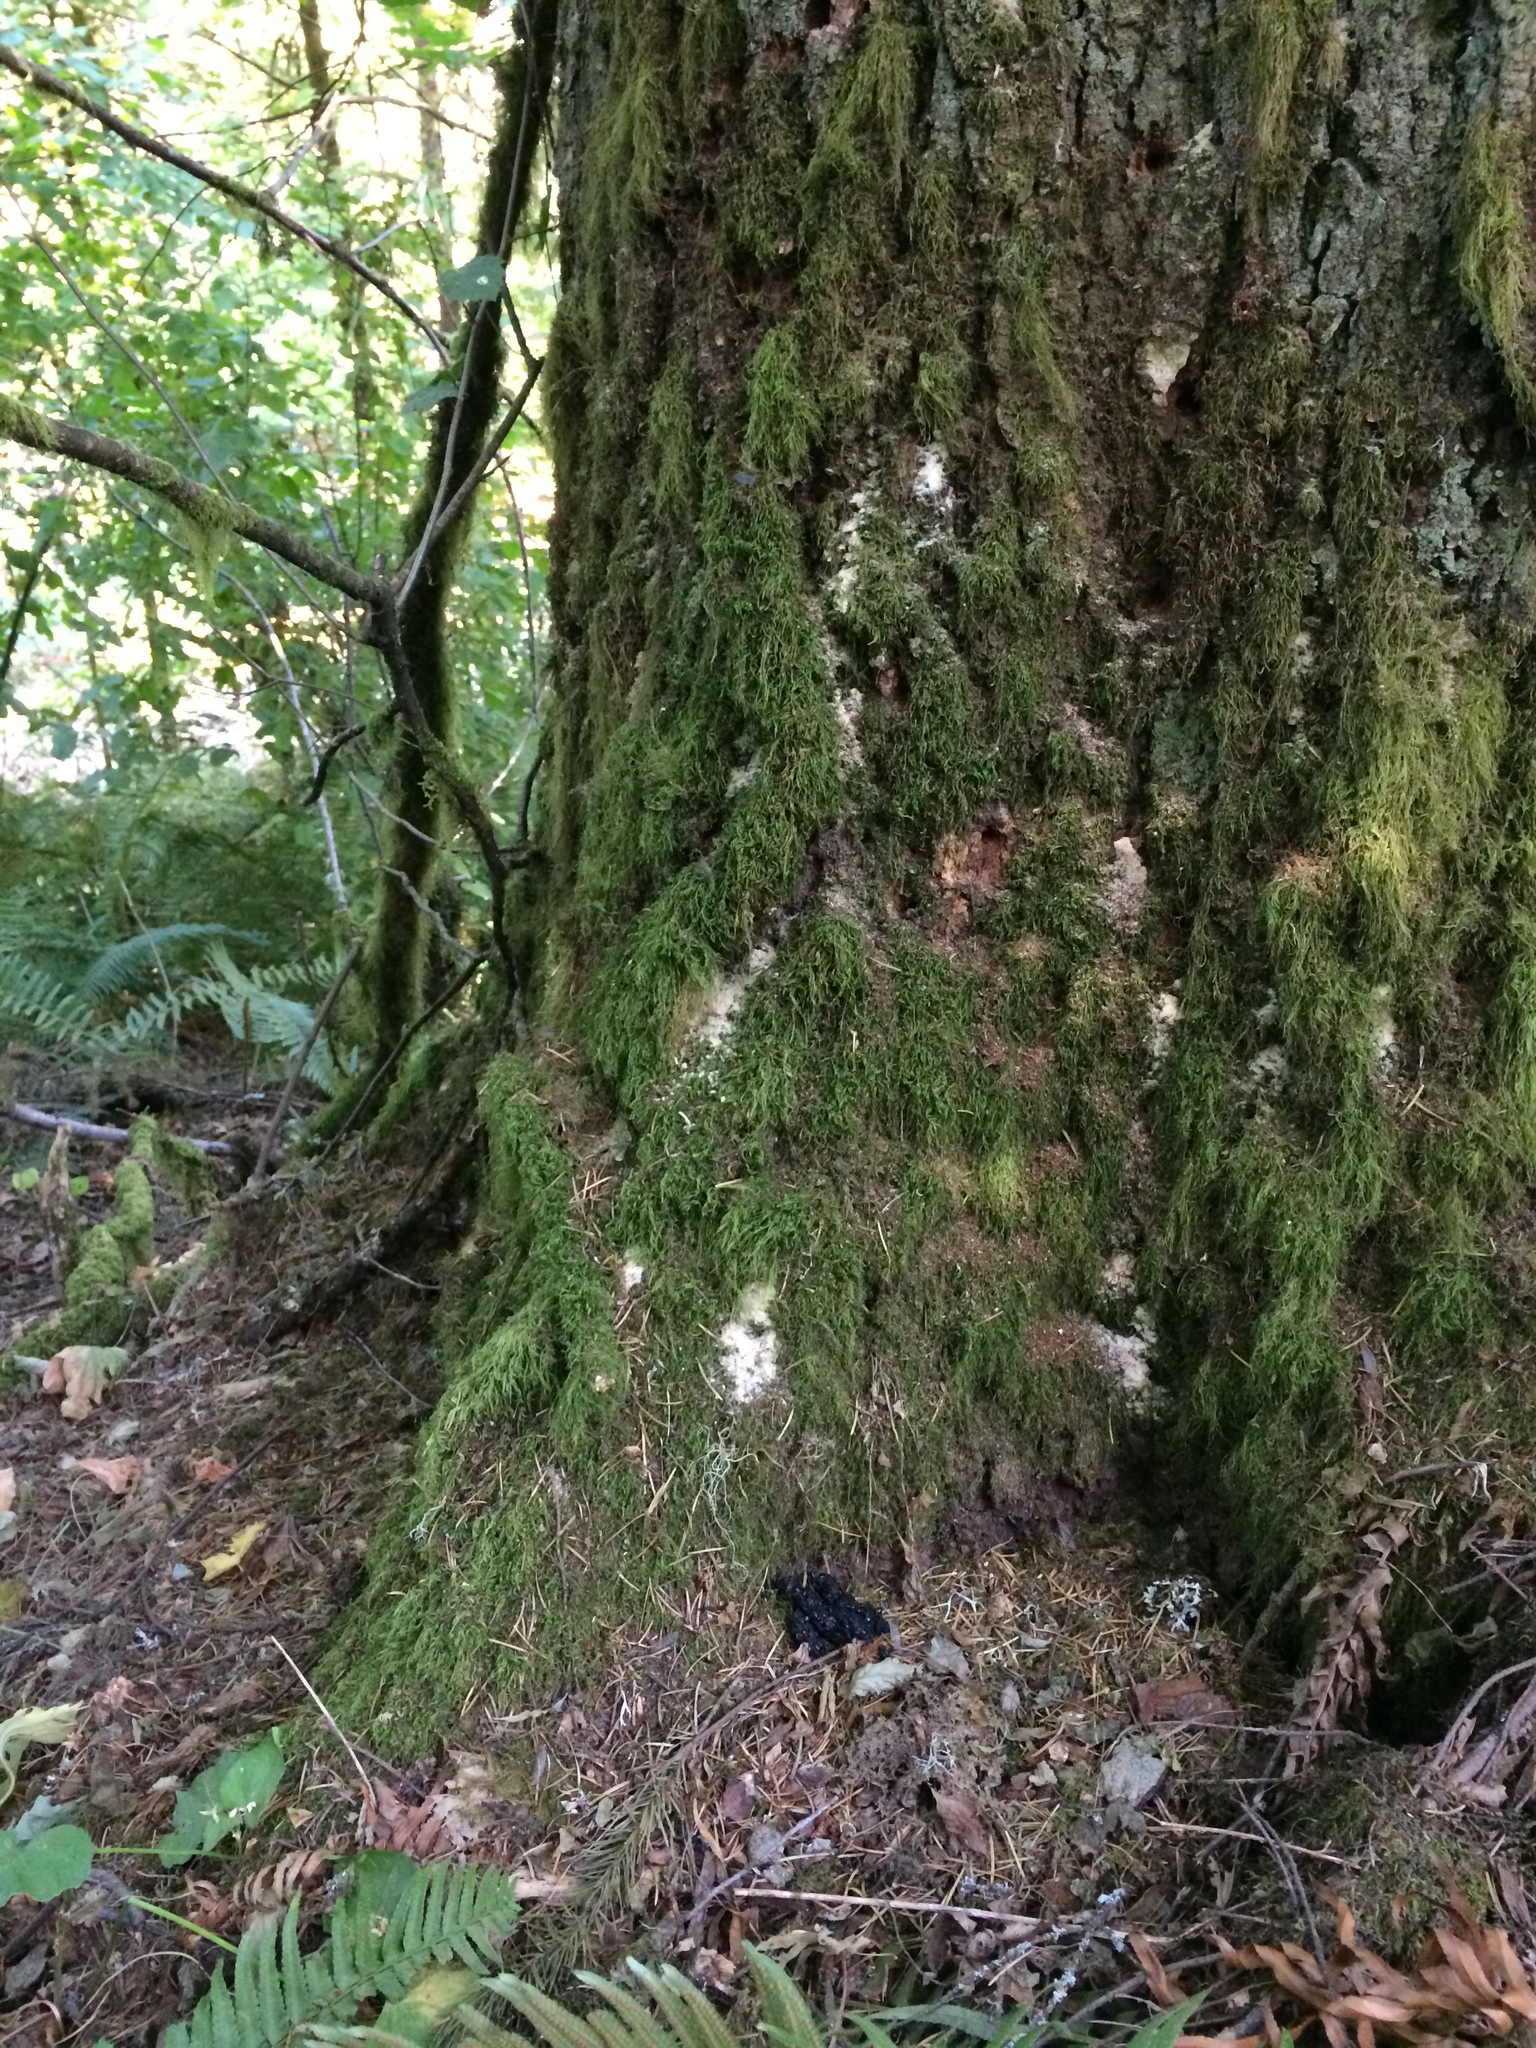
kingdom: Animalia
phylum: Chordata
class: Mammalia
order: Carnivora
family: Procyonidae
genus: Procyon
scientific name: Procyon lotor
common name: Raccoon
